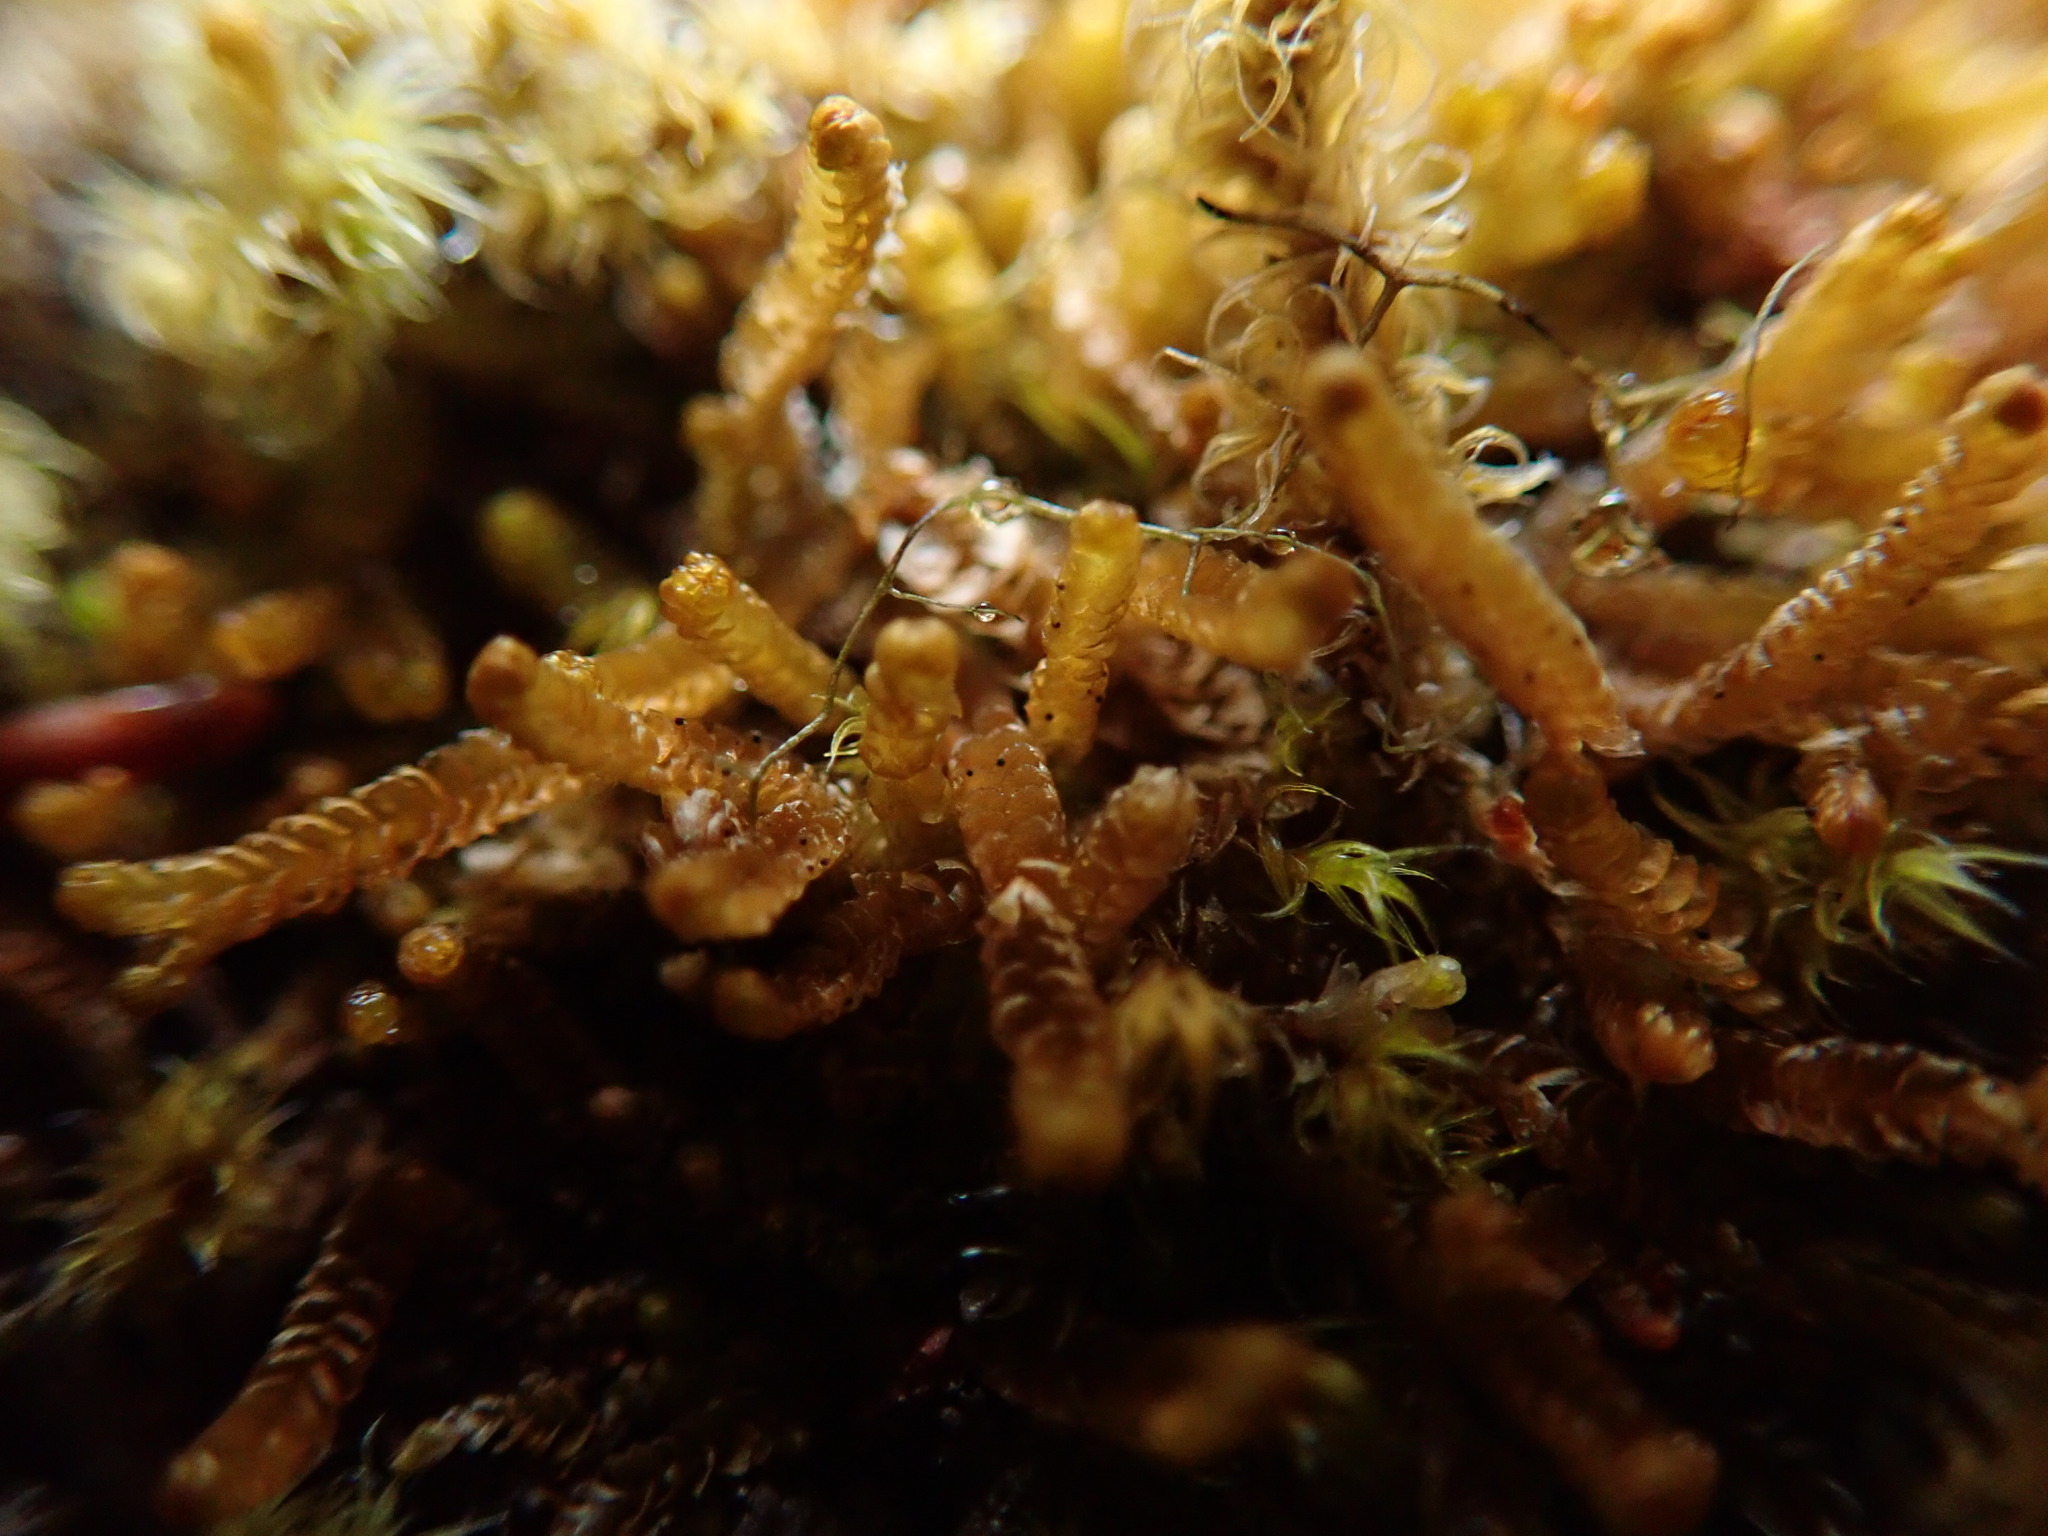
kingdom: Plantae
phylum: Marchantiophyta
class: Jungermanniopsida
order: Jungermanniales
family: Anastrophyllaceae
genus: Neoorthocaulis
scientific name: Neoorthocaulis floerkei
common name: Floerke's barbilophozia
